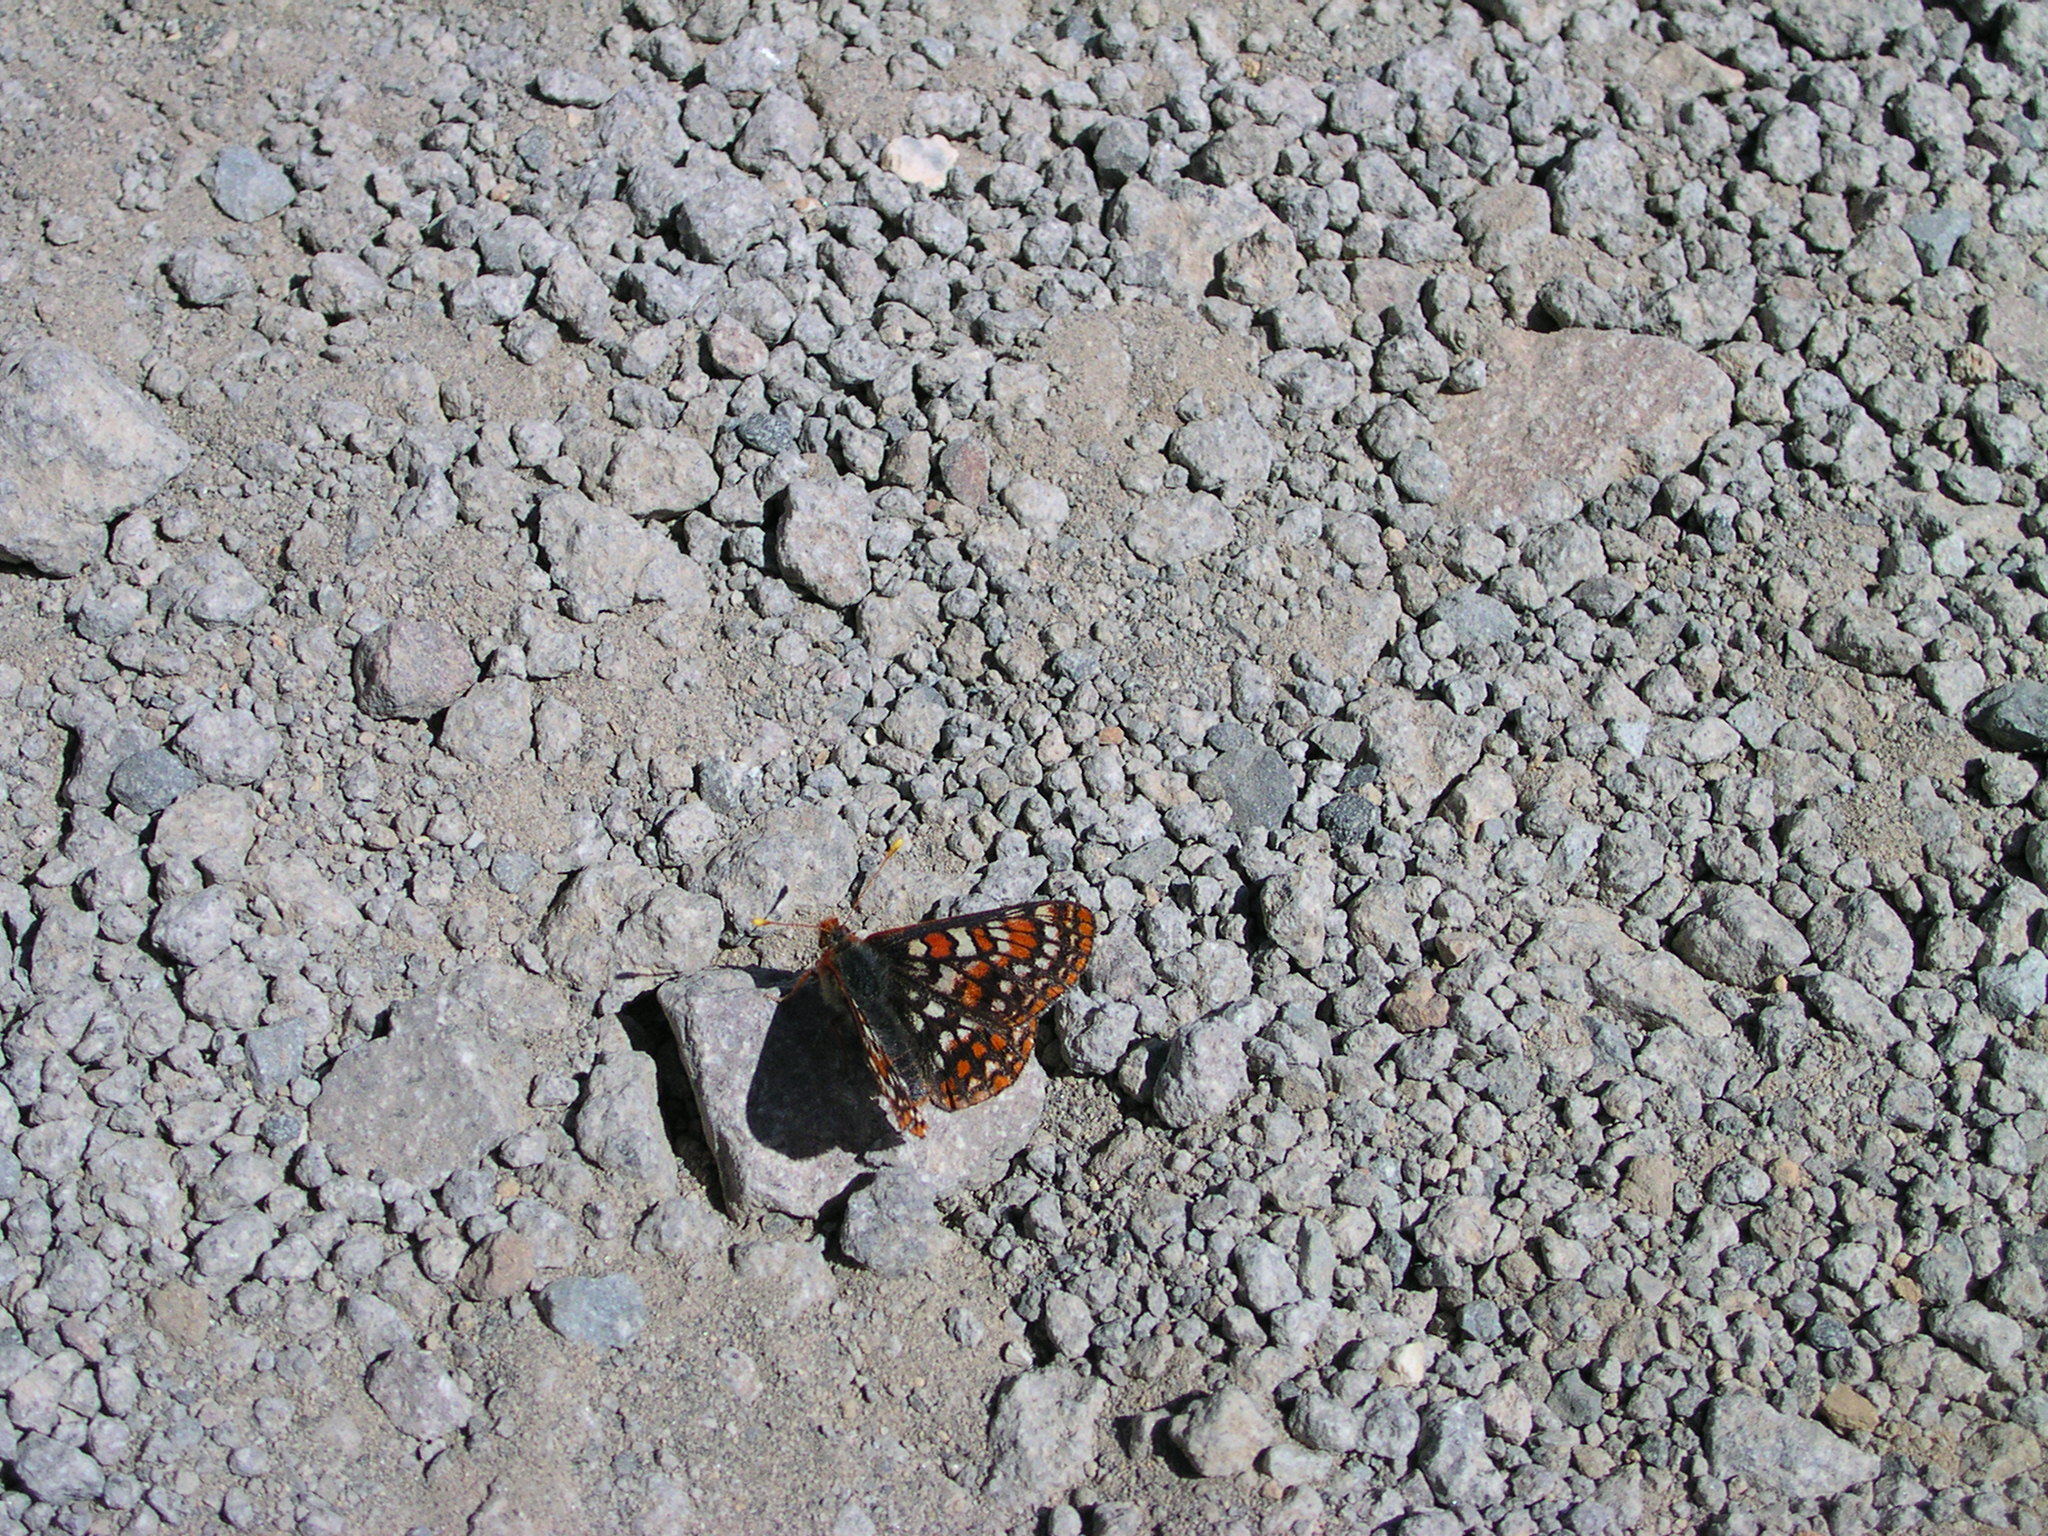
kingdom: Animalia
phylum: Arthropoda
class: Insecta
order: Lepidoptera
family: Nymphalidae
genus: Occidryas
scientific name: Occidryas editha
